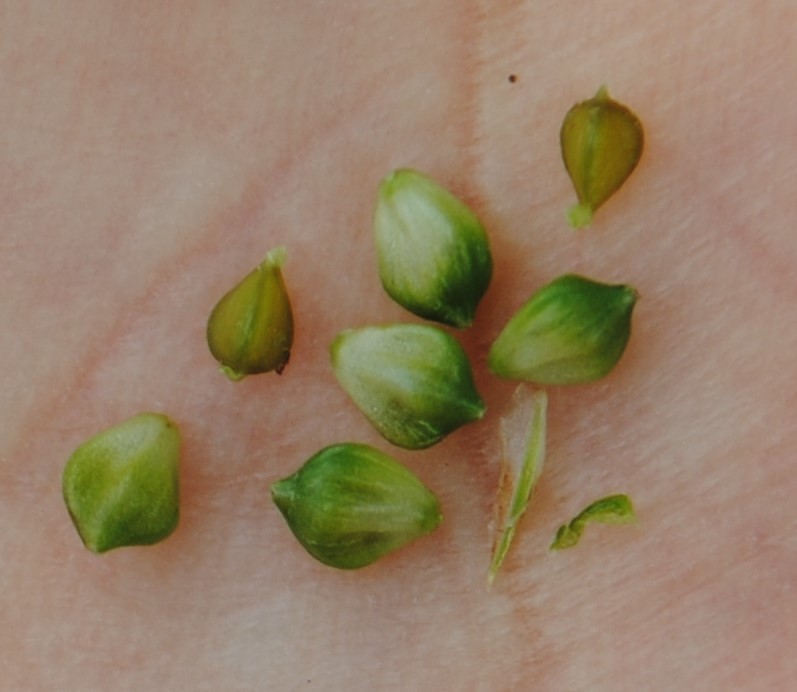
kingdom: Plantae
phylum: Tracheophyta
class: Liliopsida
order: Poales
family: Cyperaceae
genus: Carex
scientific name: Carex bushii
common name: Bush's sedge
